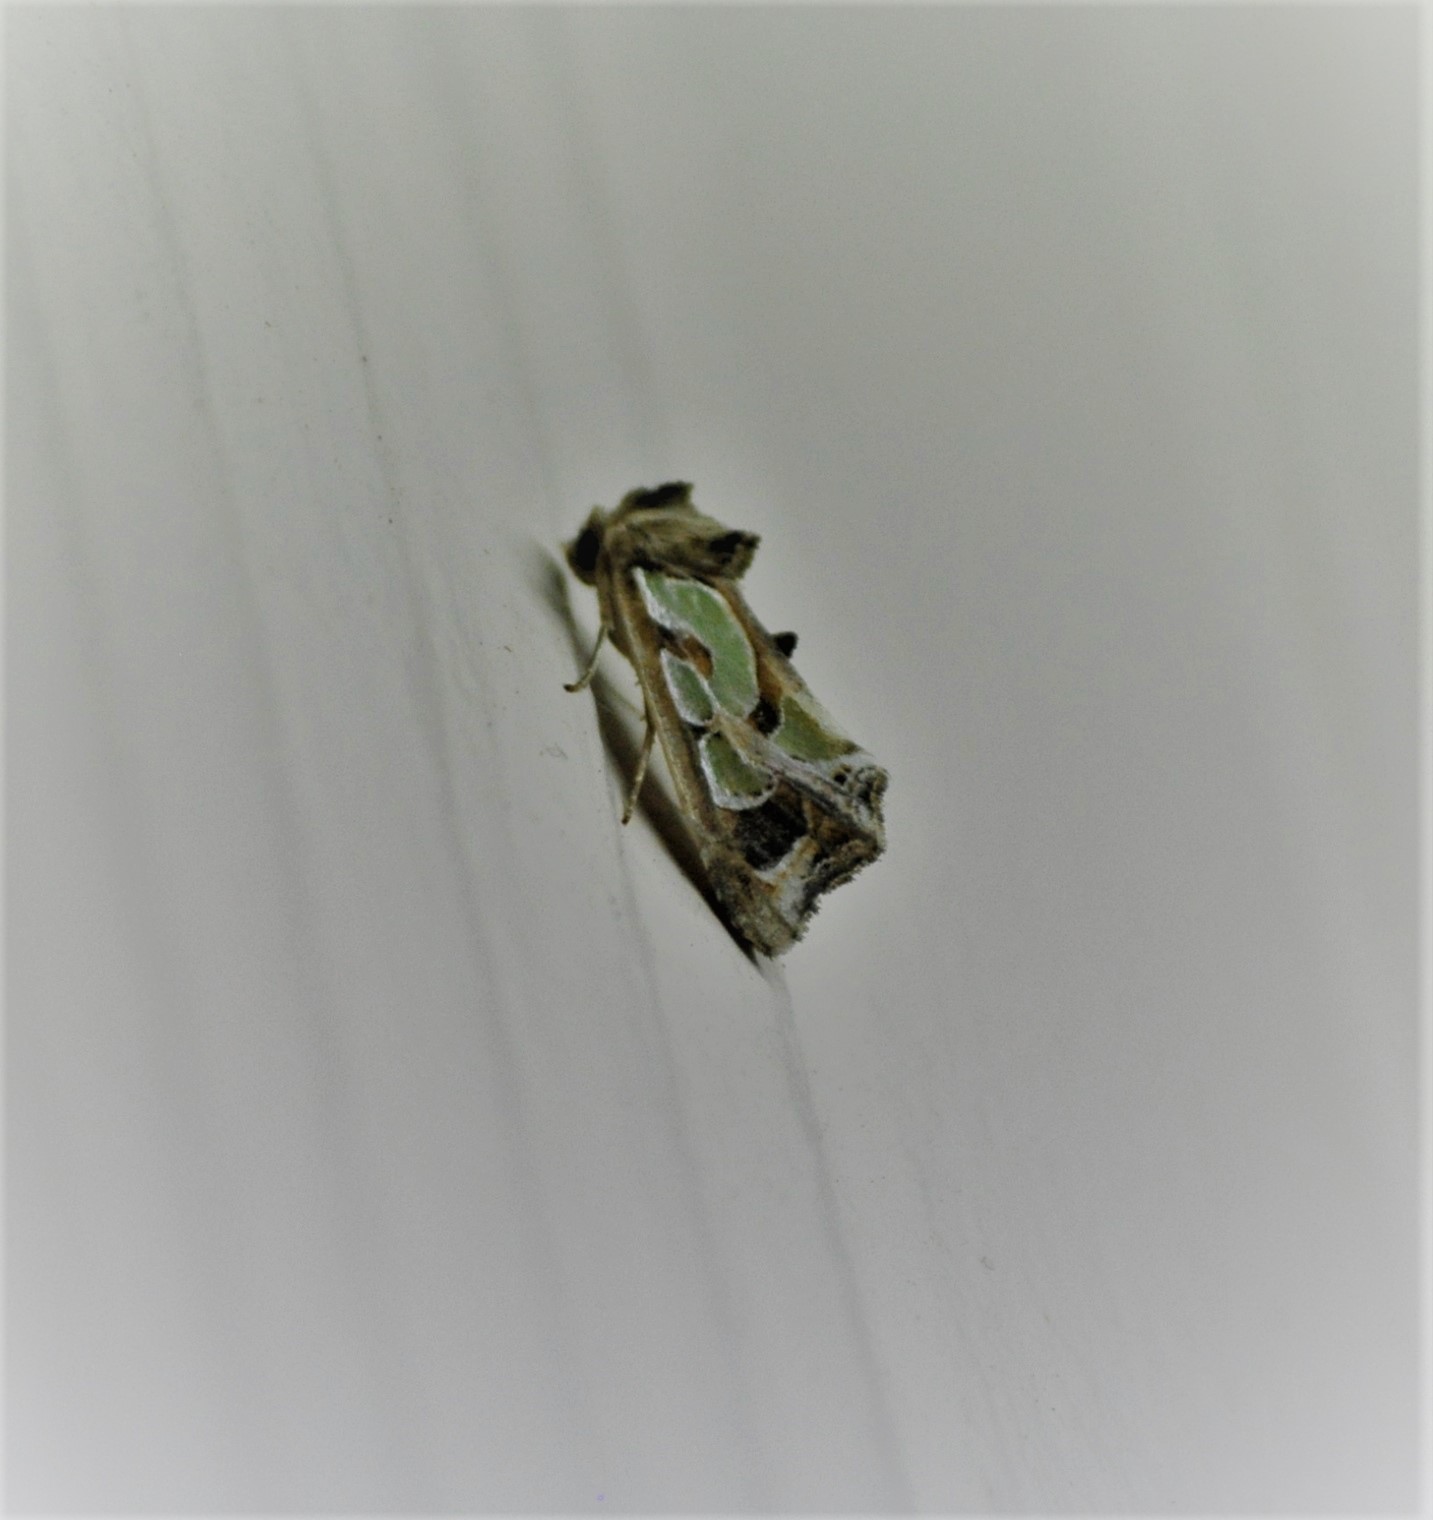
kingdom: Animalia
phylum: Arthropoda
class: Insecta
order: Lepidoptera
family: Noctuidae
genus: Cosmodes
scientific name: Cosmodes elegans
